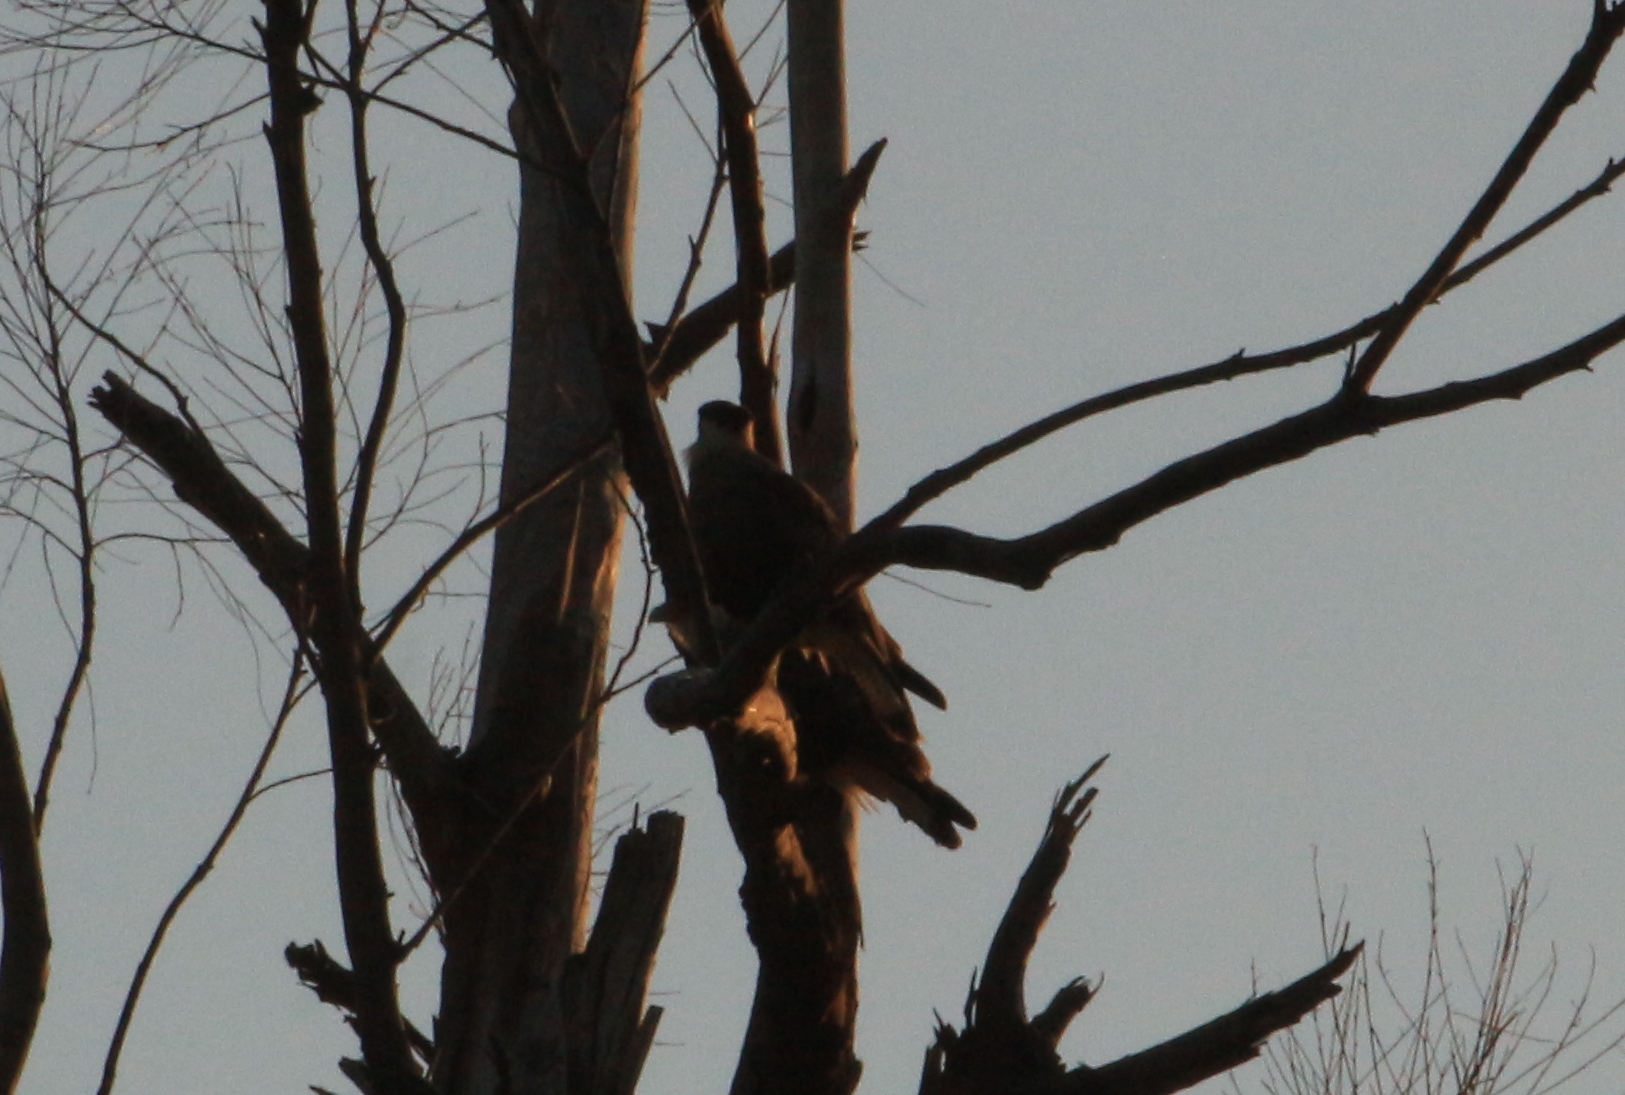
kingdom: Animalia
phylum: Chordata
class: Aves
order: Falconiformes
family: Falconidae
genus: Caracara
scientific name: Caracara plancus
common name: Southern caracara
